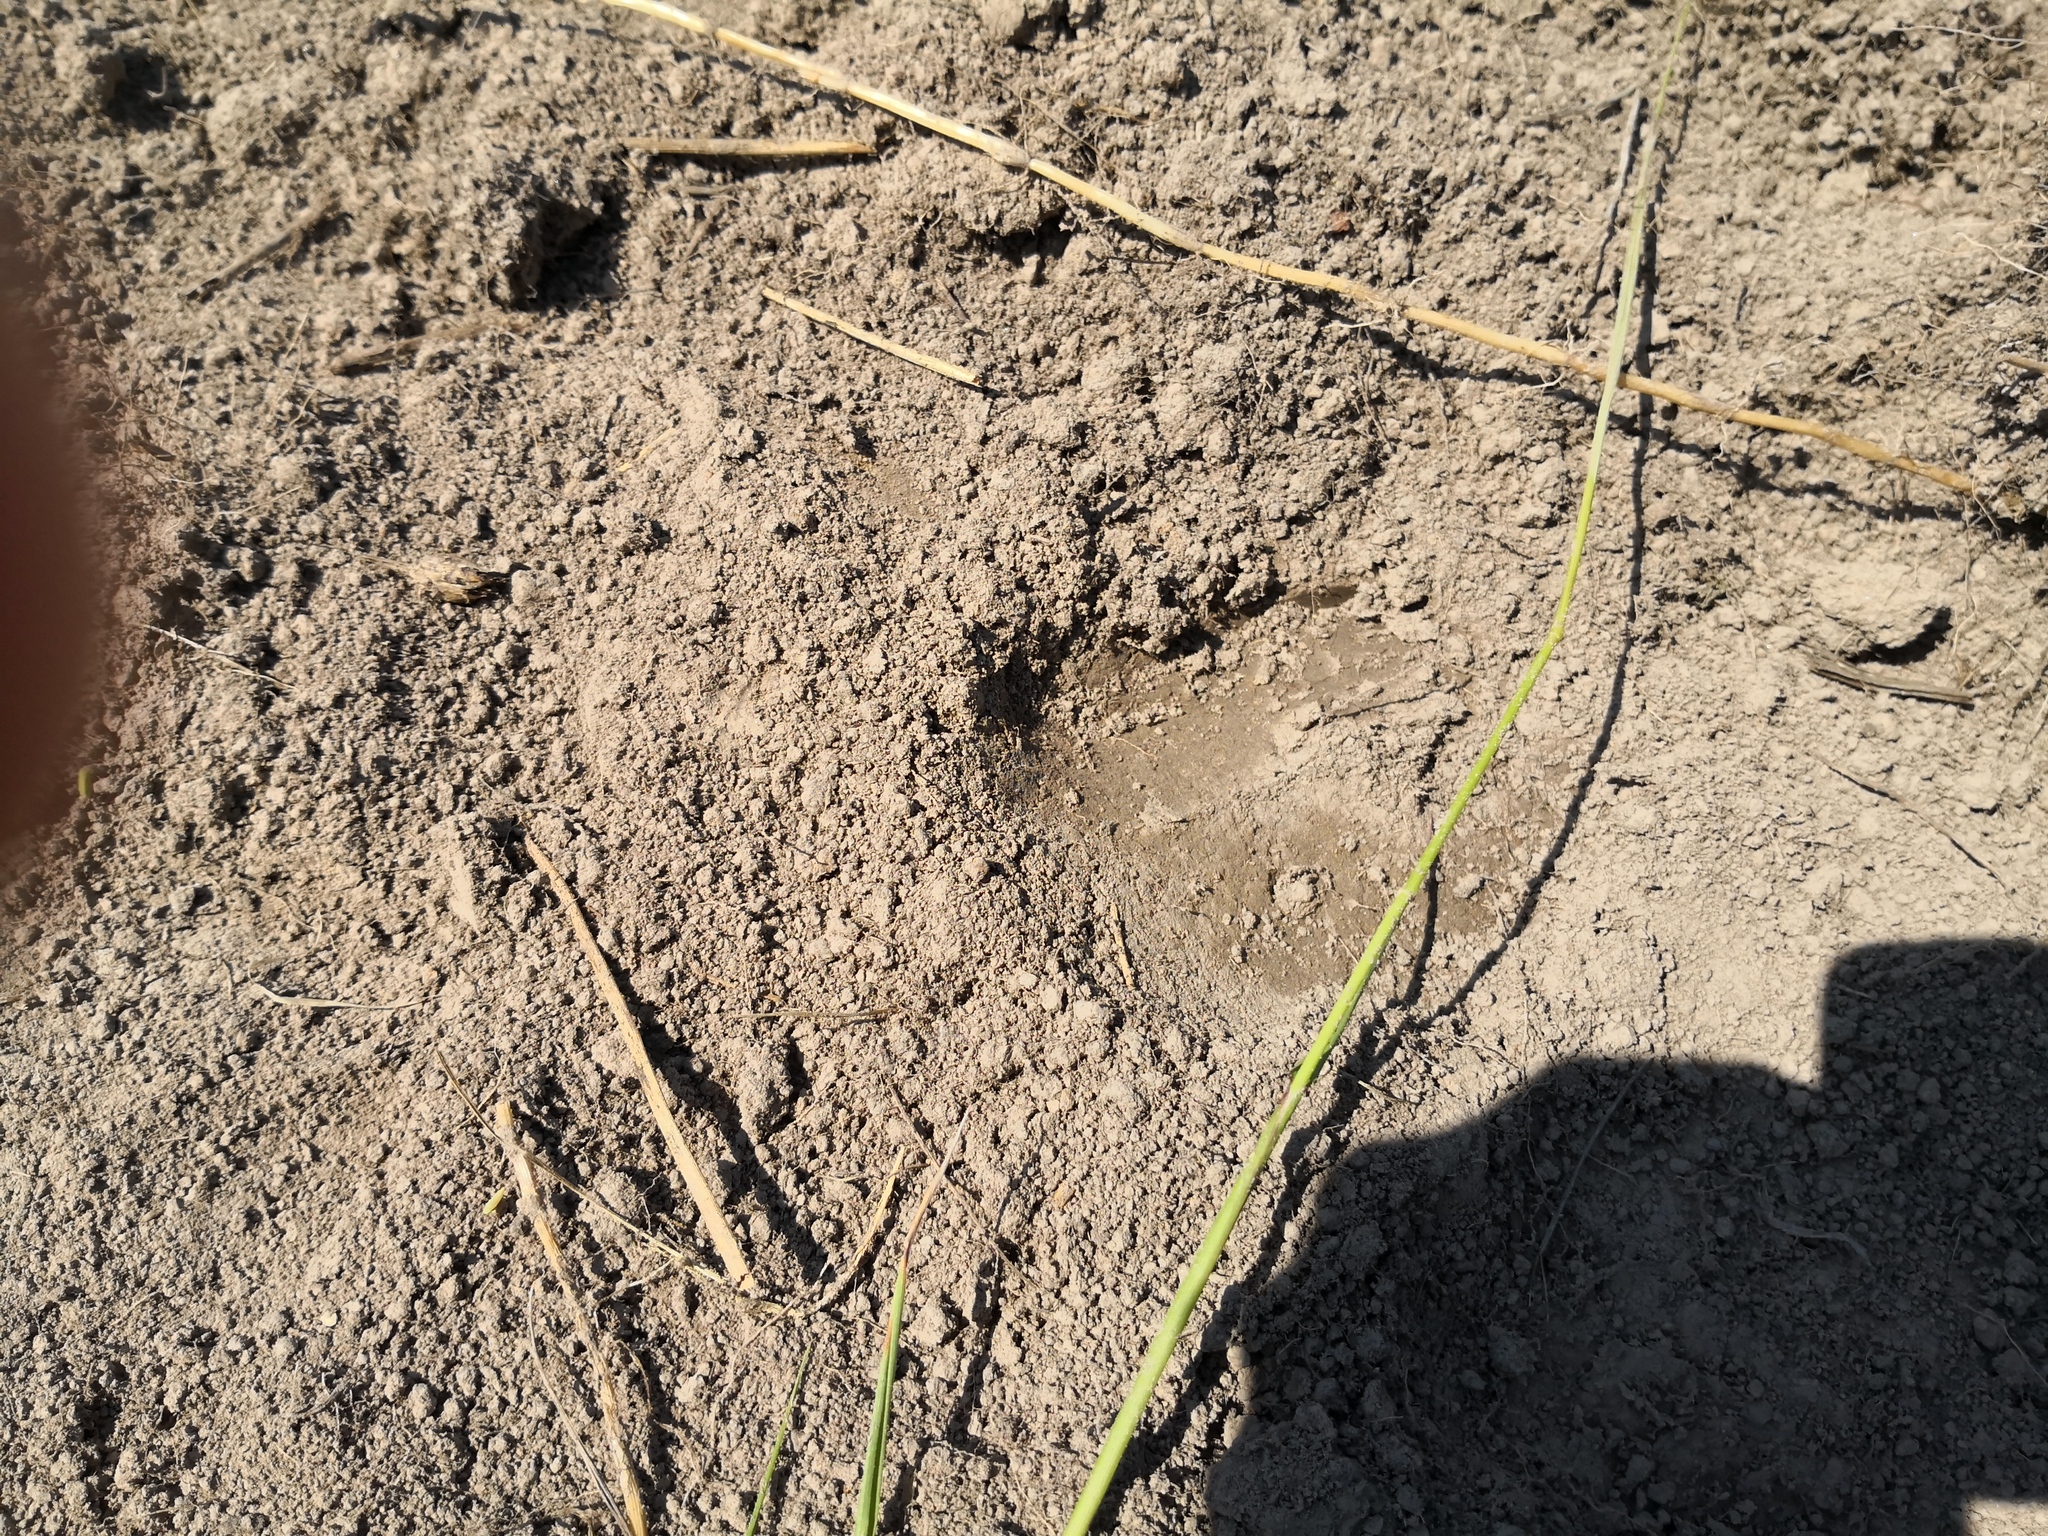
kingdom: Animalia
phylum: Chordata
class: Mammalia
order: Artiodactyla
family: Suidae
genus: Sus
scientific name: Sus scrofa
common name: Wild boar
